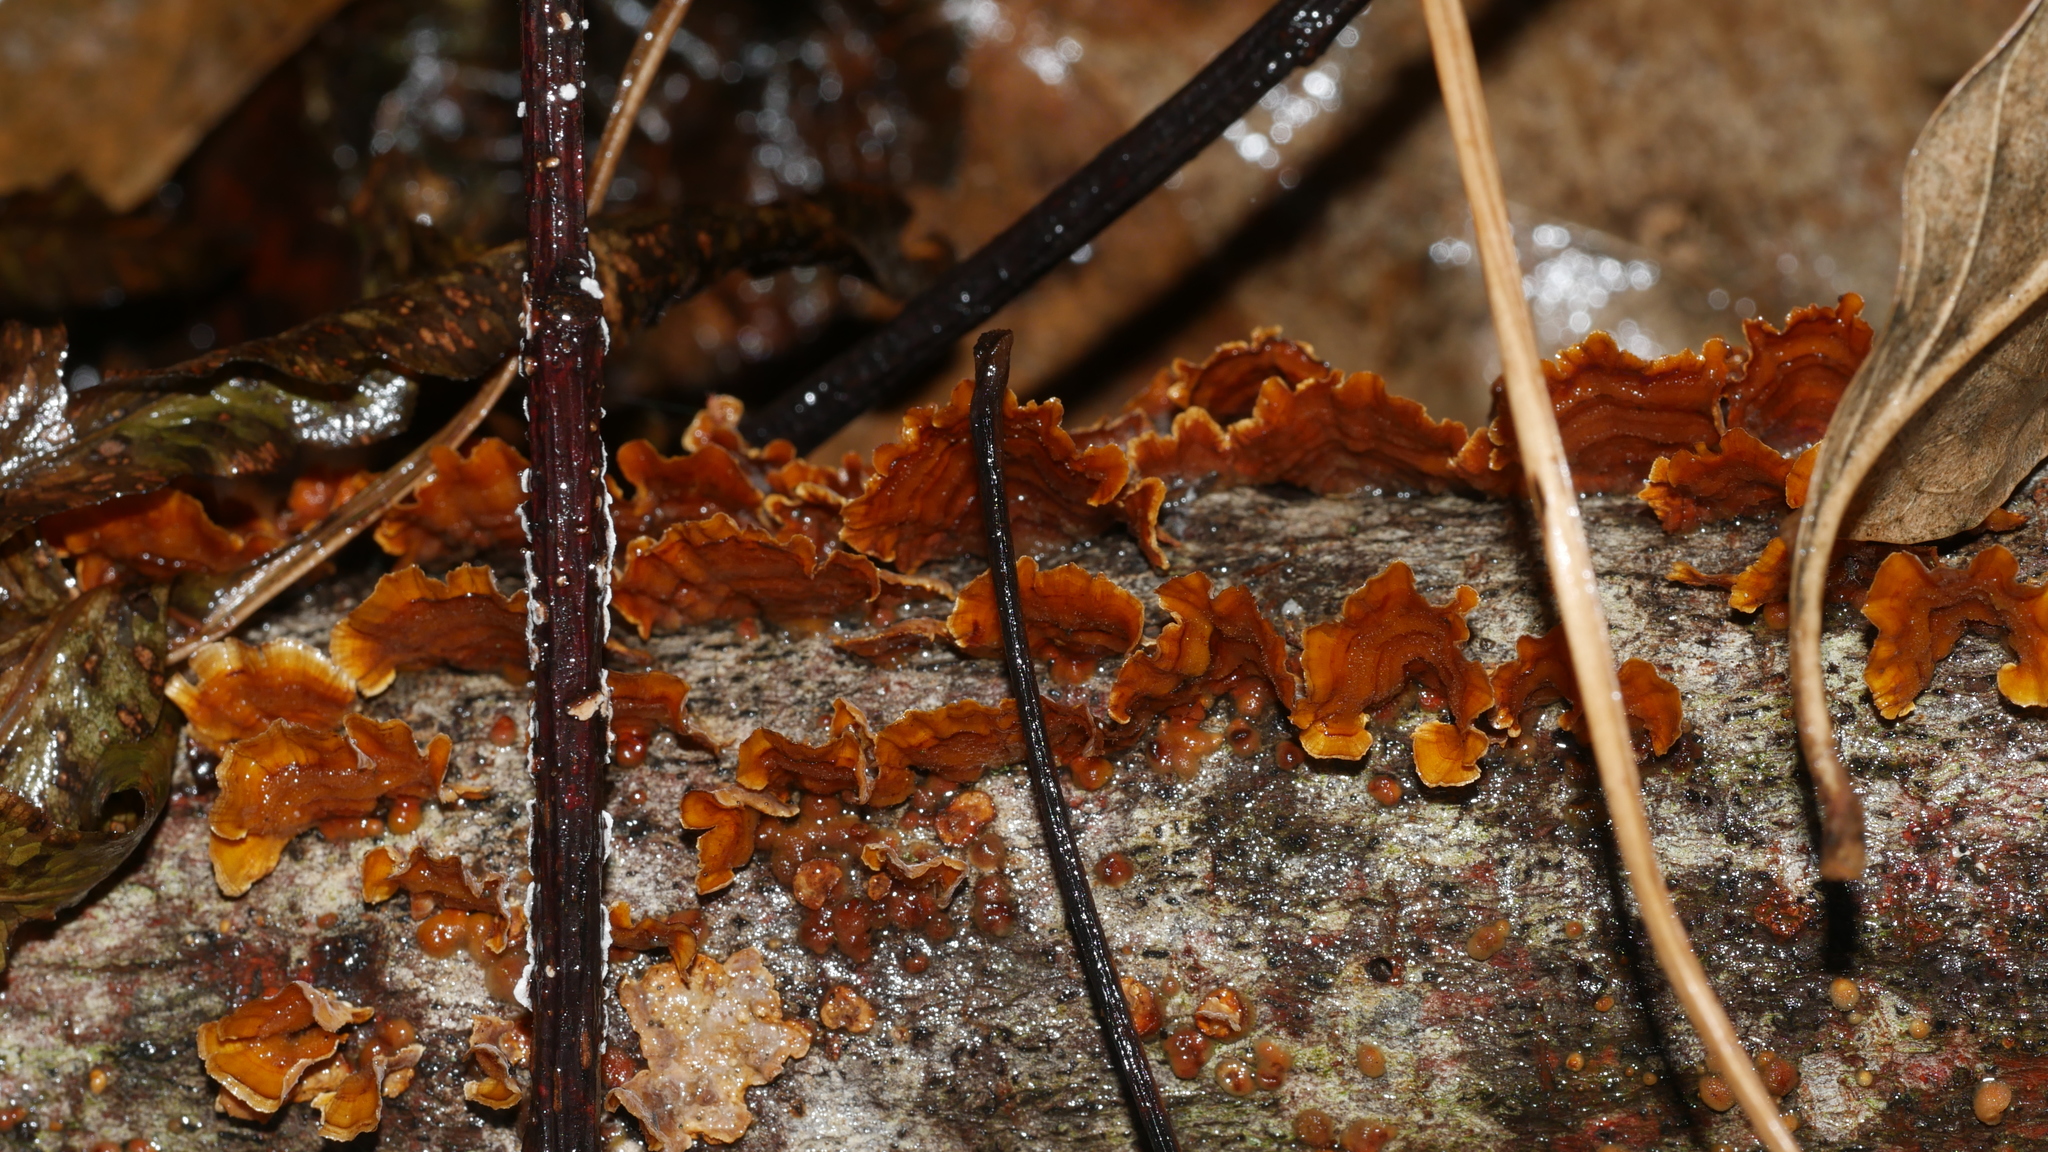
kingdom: Fungi
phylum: Basidiomycota
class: Agaricomycetes
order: Russulales
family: Stereaceae
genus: Stereum
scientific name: Stereum complicatum
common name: Crowded parchment
